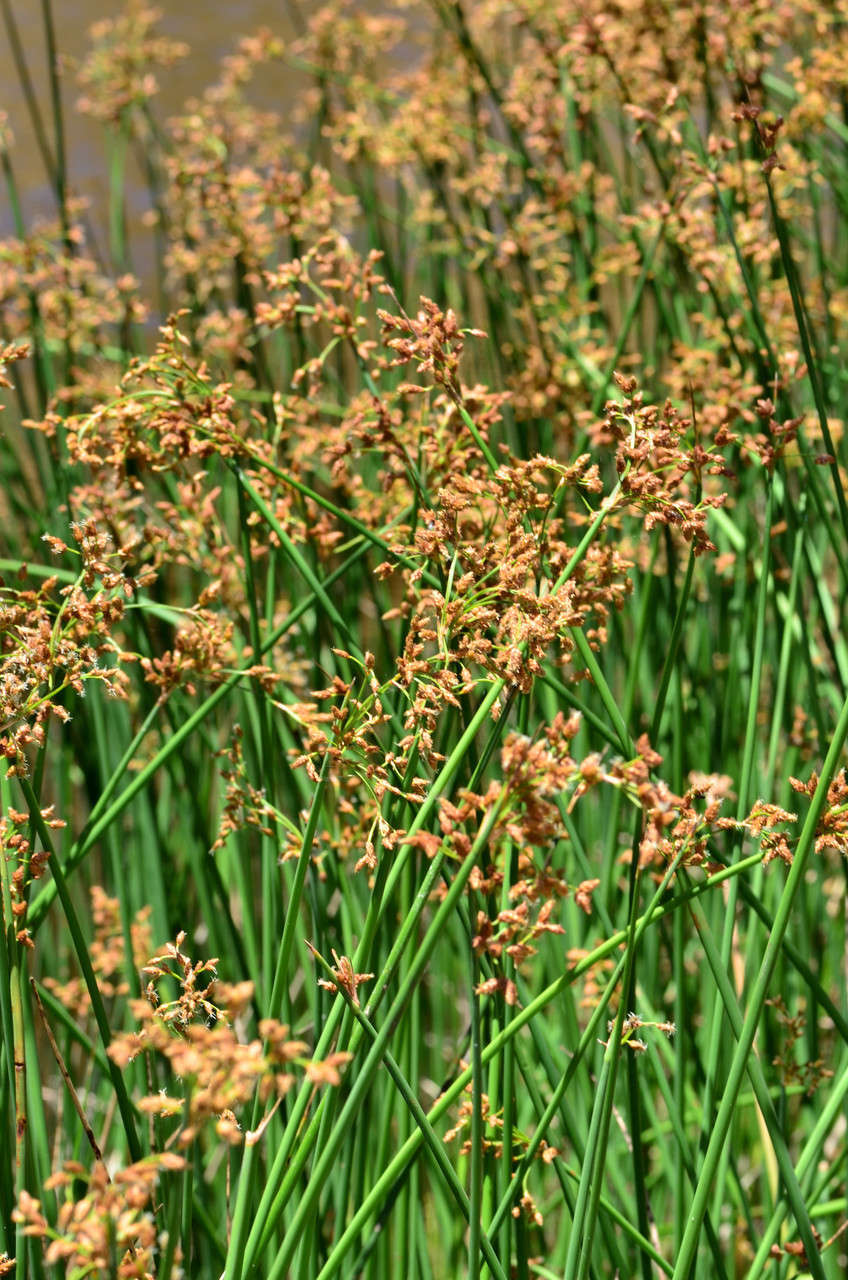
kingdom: Plantae
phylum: Tracheophyta
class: Liliopsida
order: Poales
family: Cyperaceae
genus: Schoenoplectus
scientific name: Schoenoplectus tabernaemontani
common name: Grey club-rush
